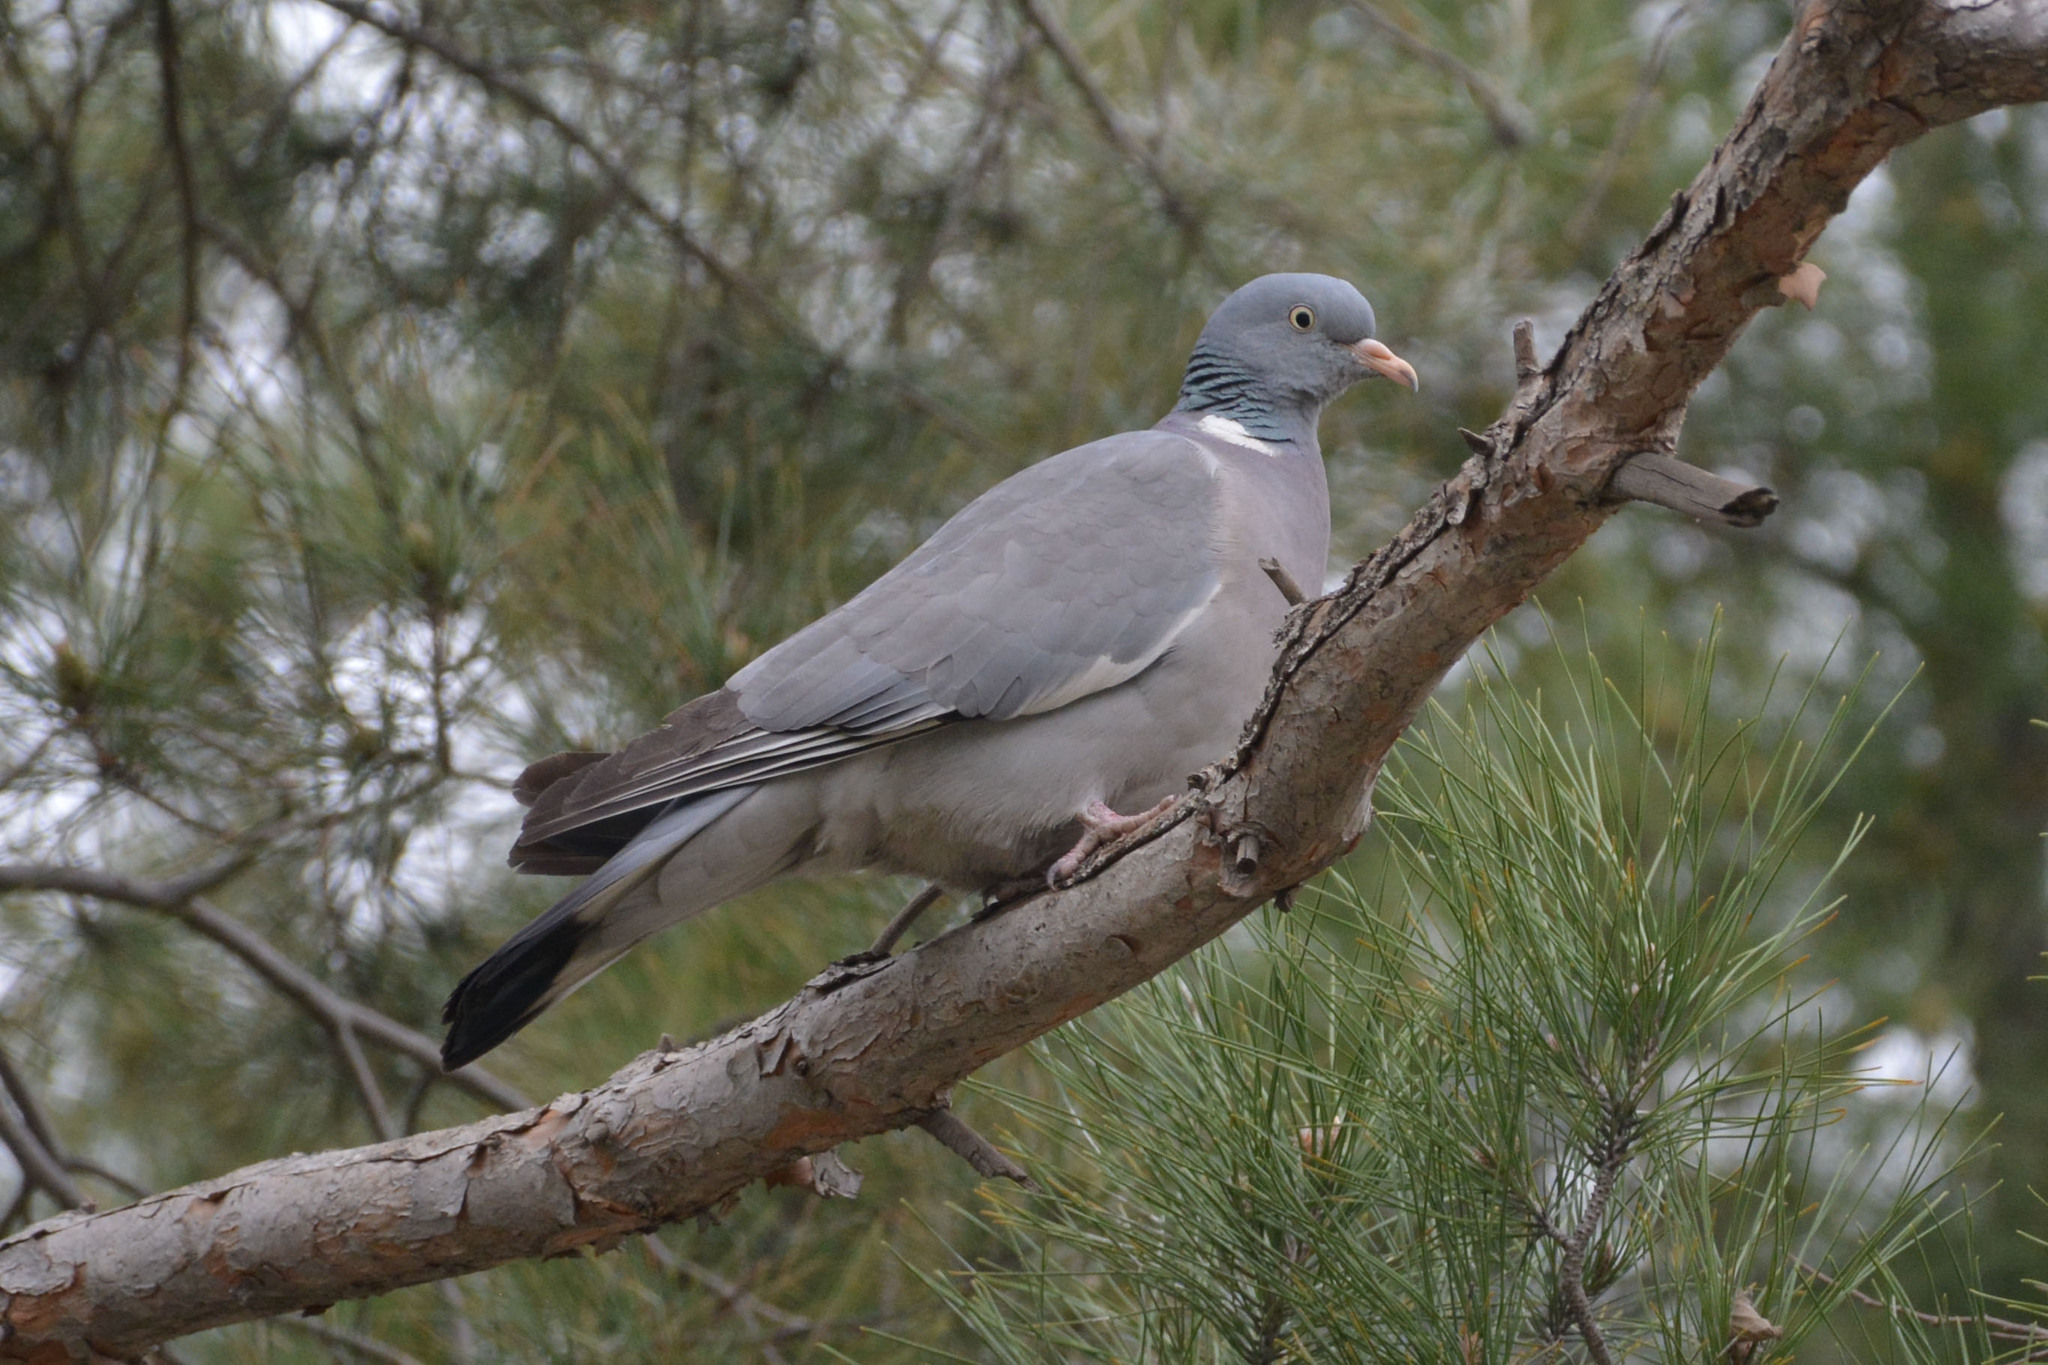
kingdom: Animalia
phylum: Chordata
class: Aves
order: Columbiformes
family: Columbidae
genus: Columba
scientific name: Columba palumbus
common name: Common wood pigeon
